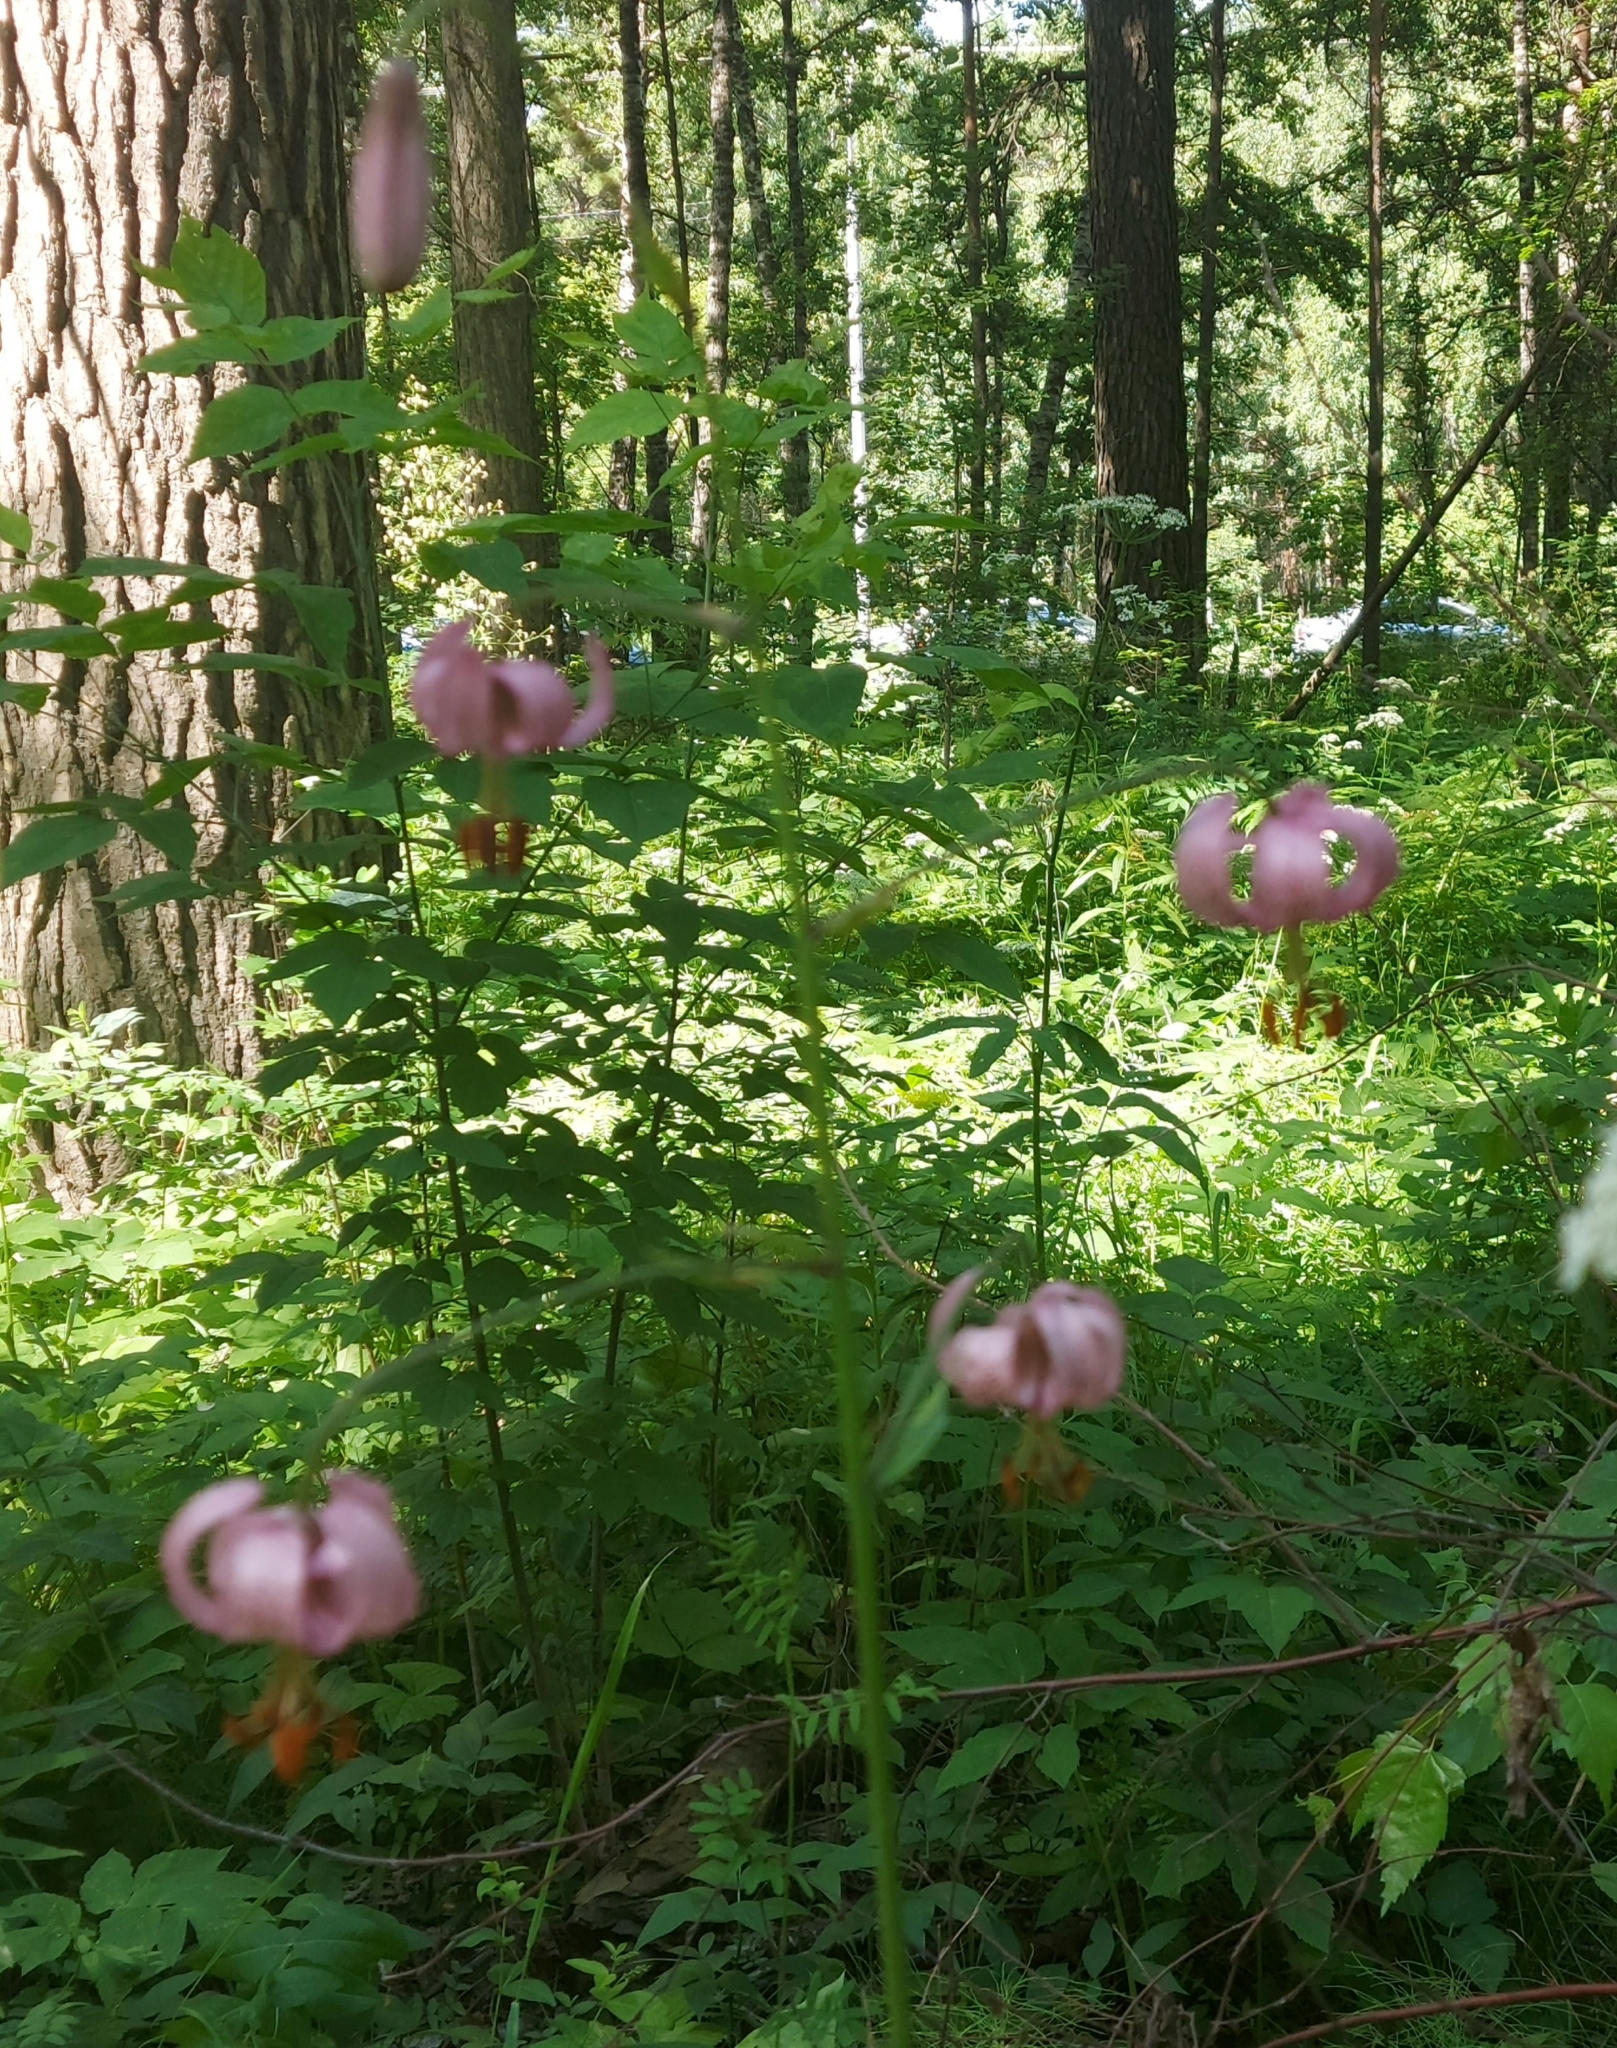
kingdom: Plantae
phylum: Tracheophyta
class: Liliopsida
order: Liliales
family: Liliaceae
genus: Lilium
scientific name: Lilium martagon
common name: Martagon lily
